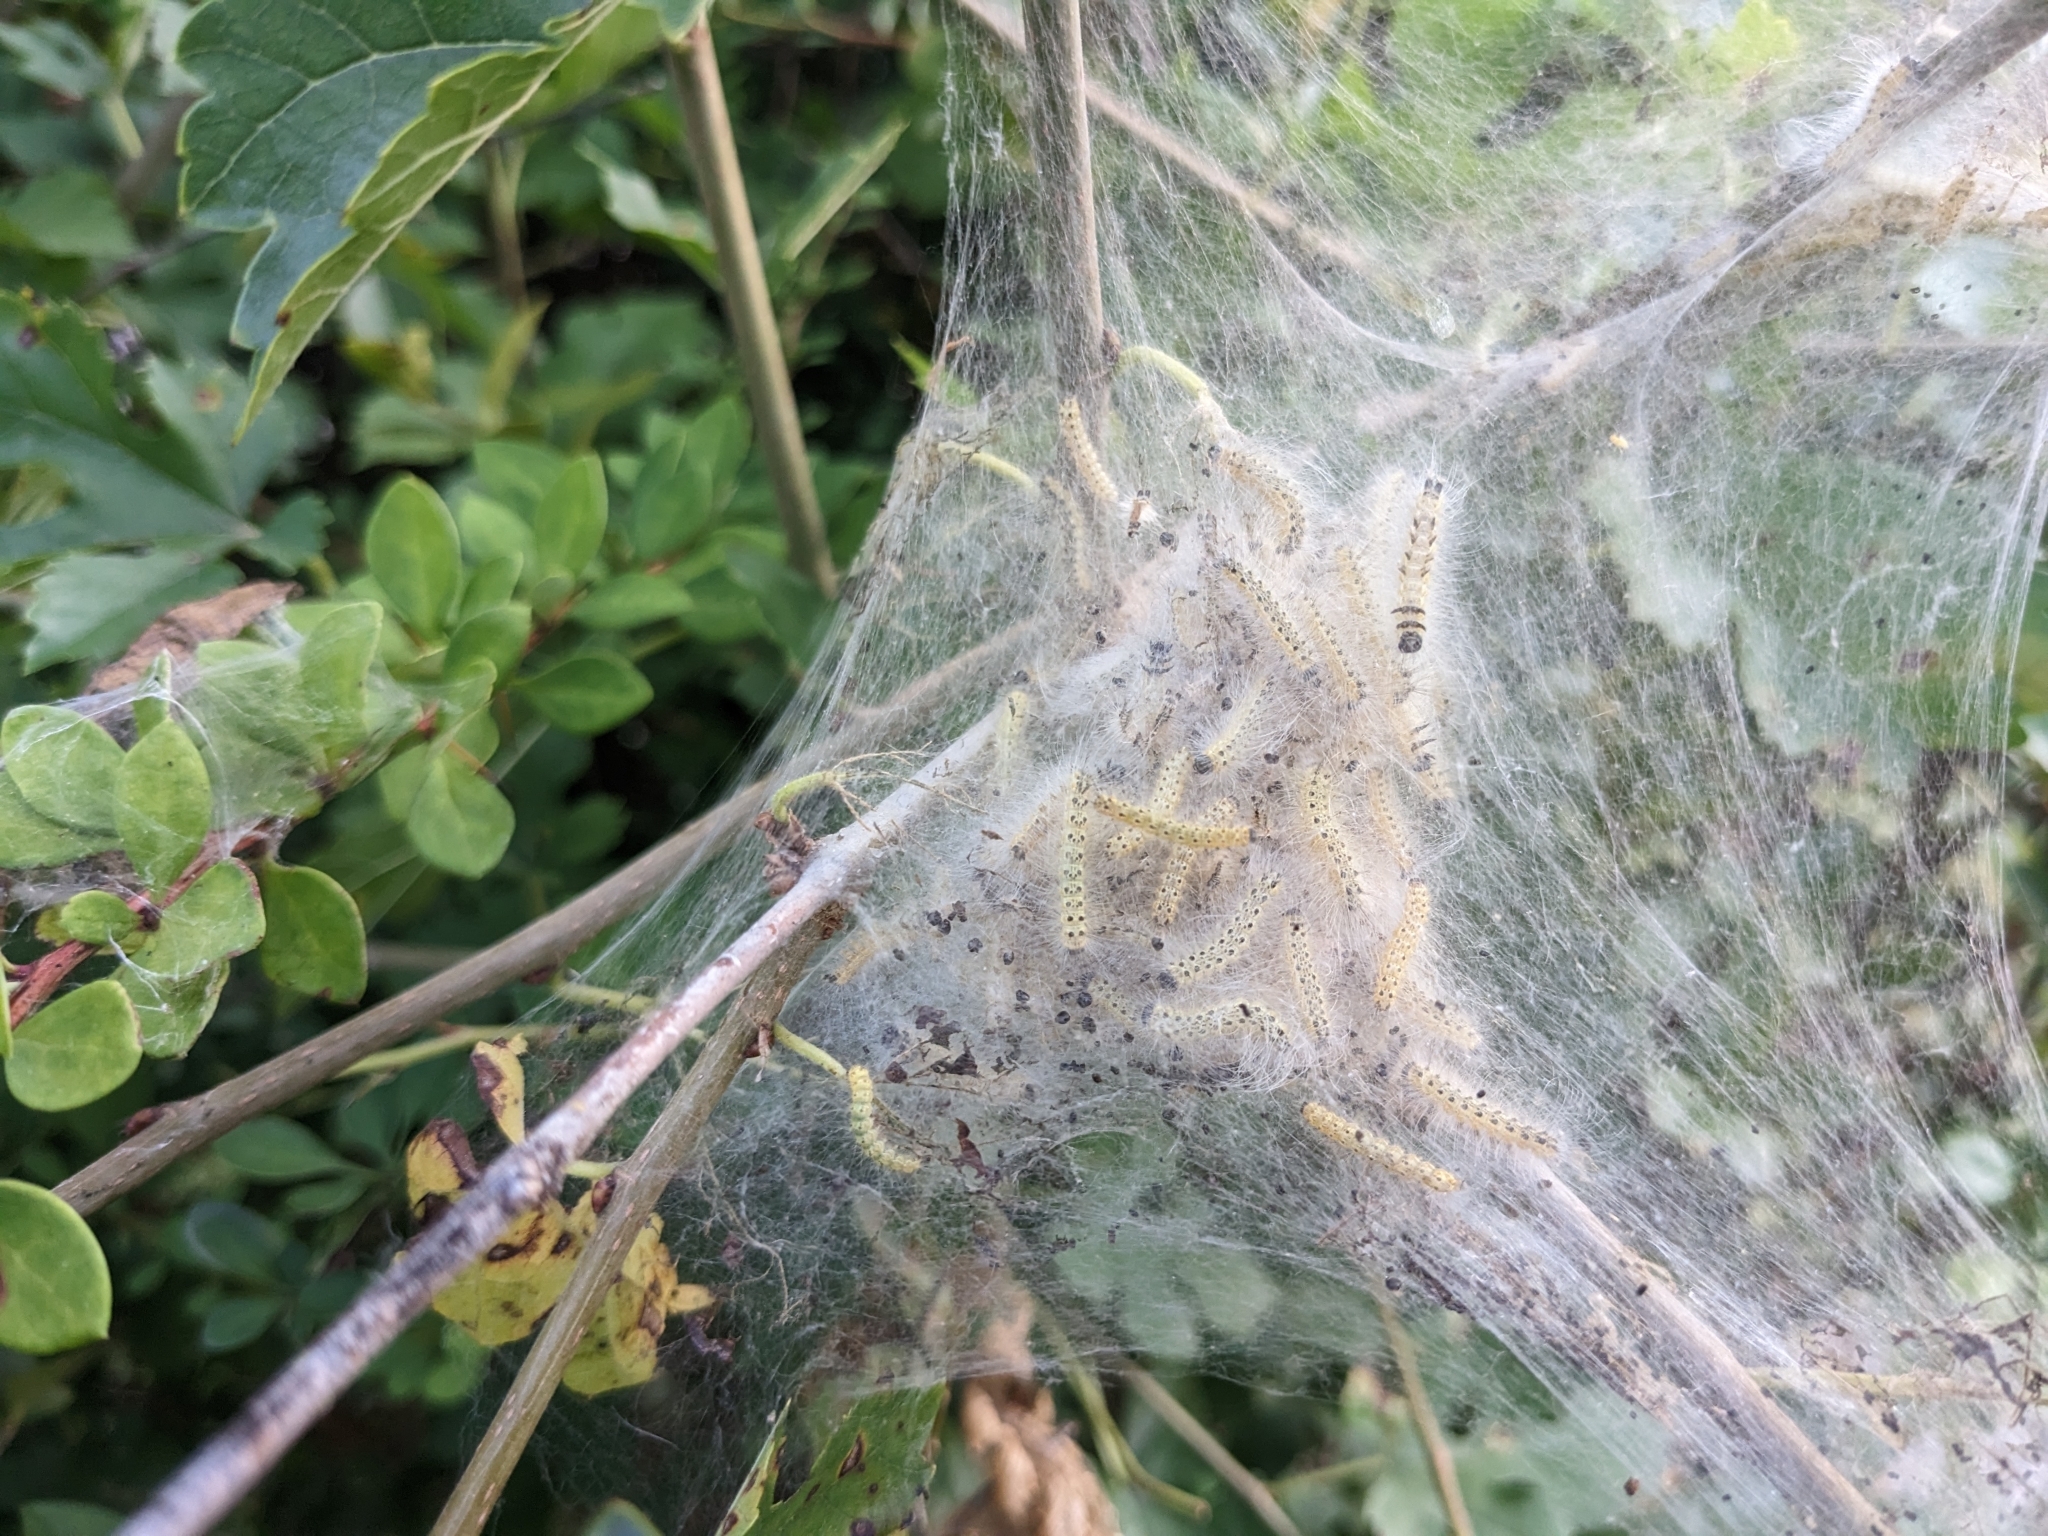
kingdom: Animalia
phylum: Arthropoda
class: Insecta
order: Lepidoptera
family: Erebidae
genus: Hyphantria
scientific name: Hyphantria cunea
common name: American white moth
